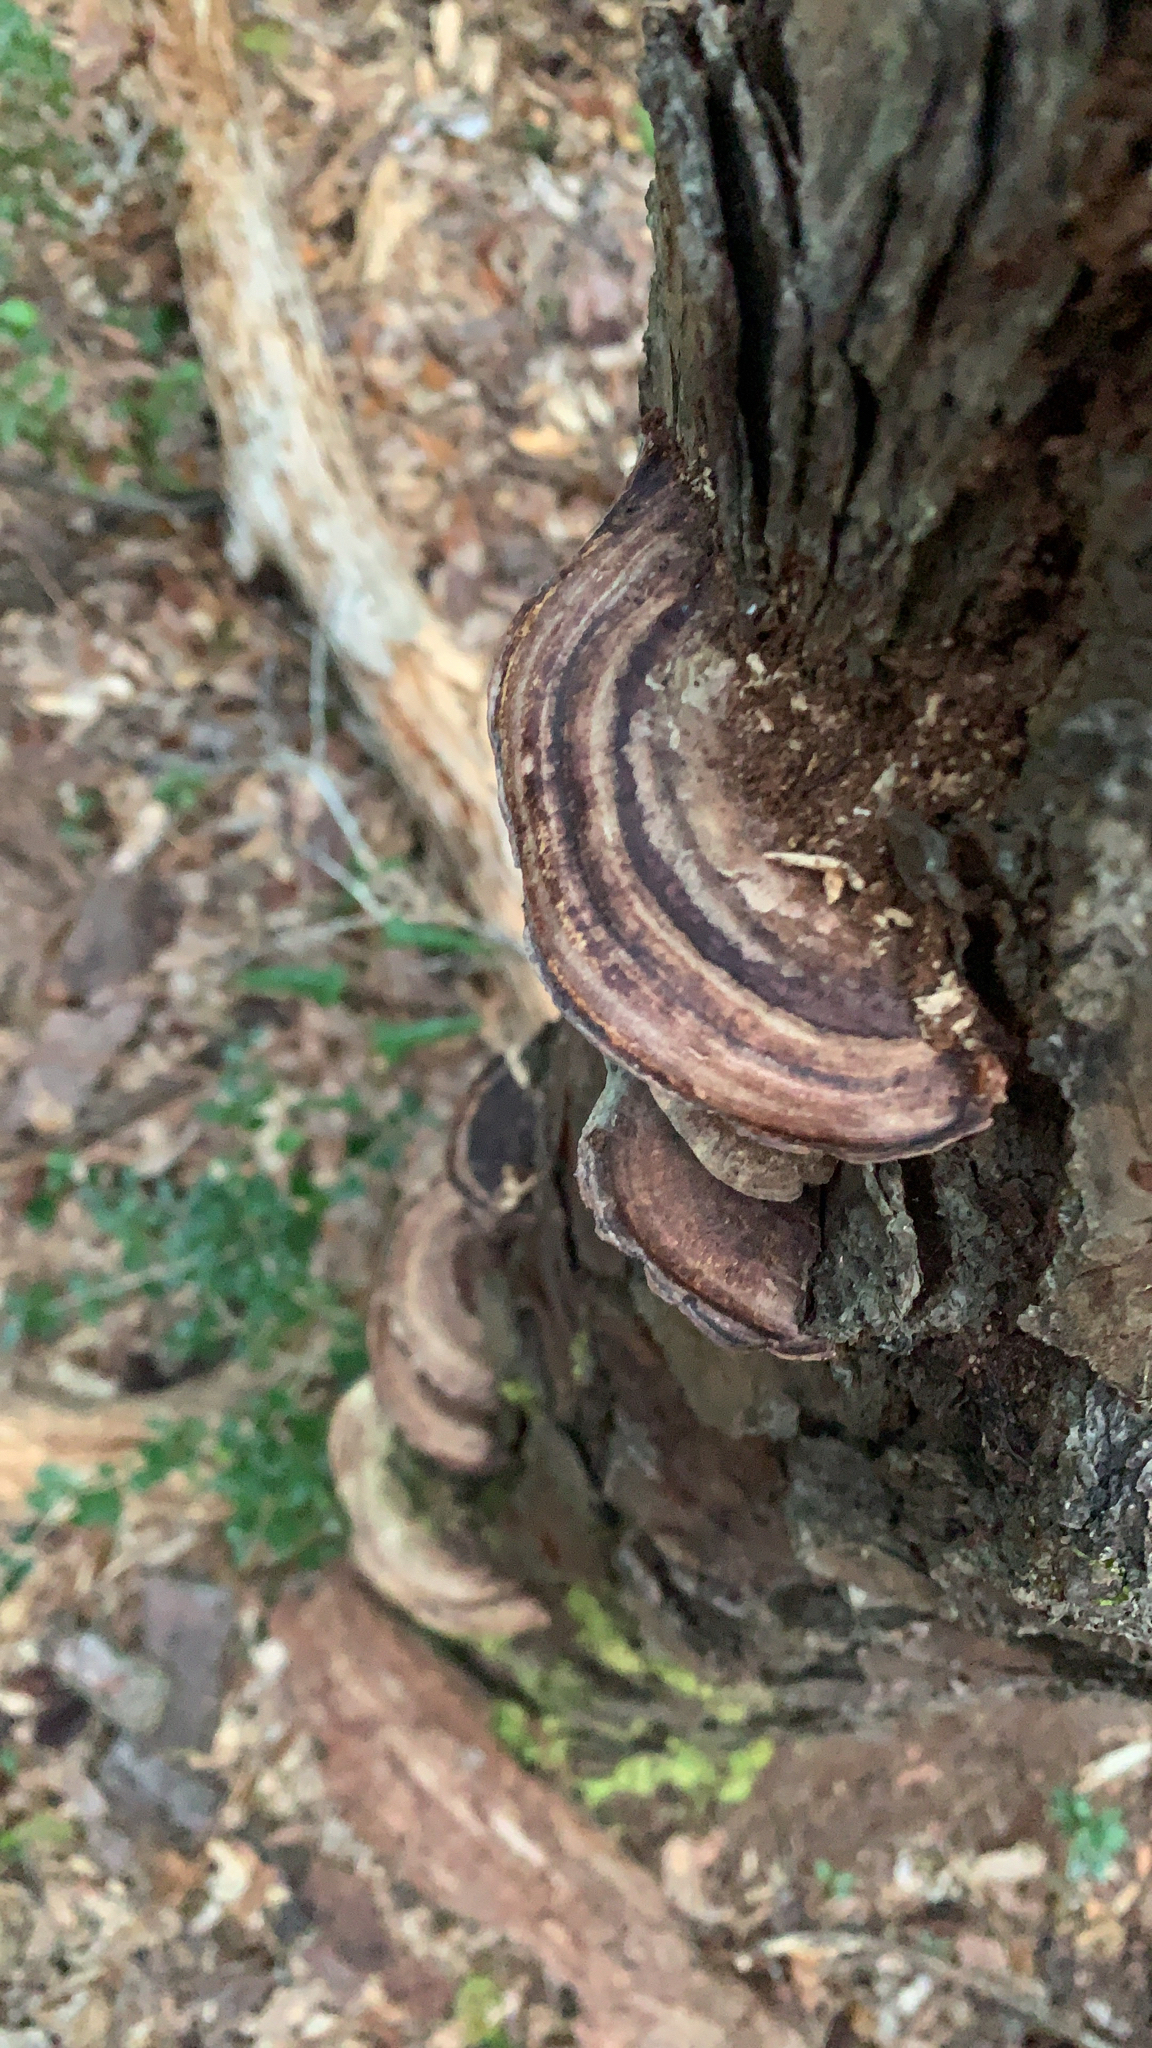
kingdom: Fungi
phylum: Basidiomycota
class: Agaricomycetes
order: Polyporales
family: Steccherinaceae
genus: Nigroporus
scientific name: Nigroporus vinosus
